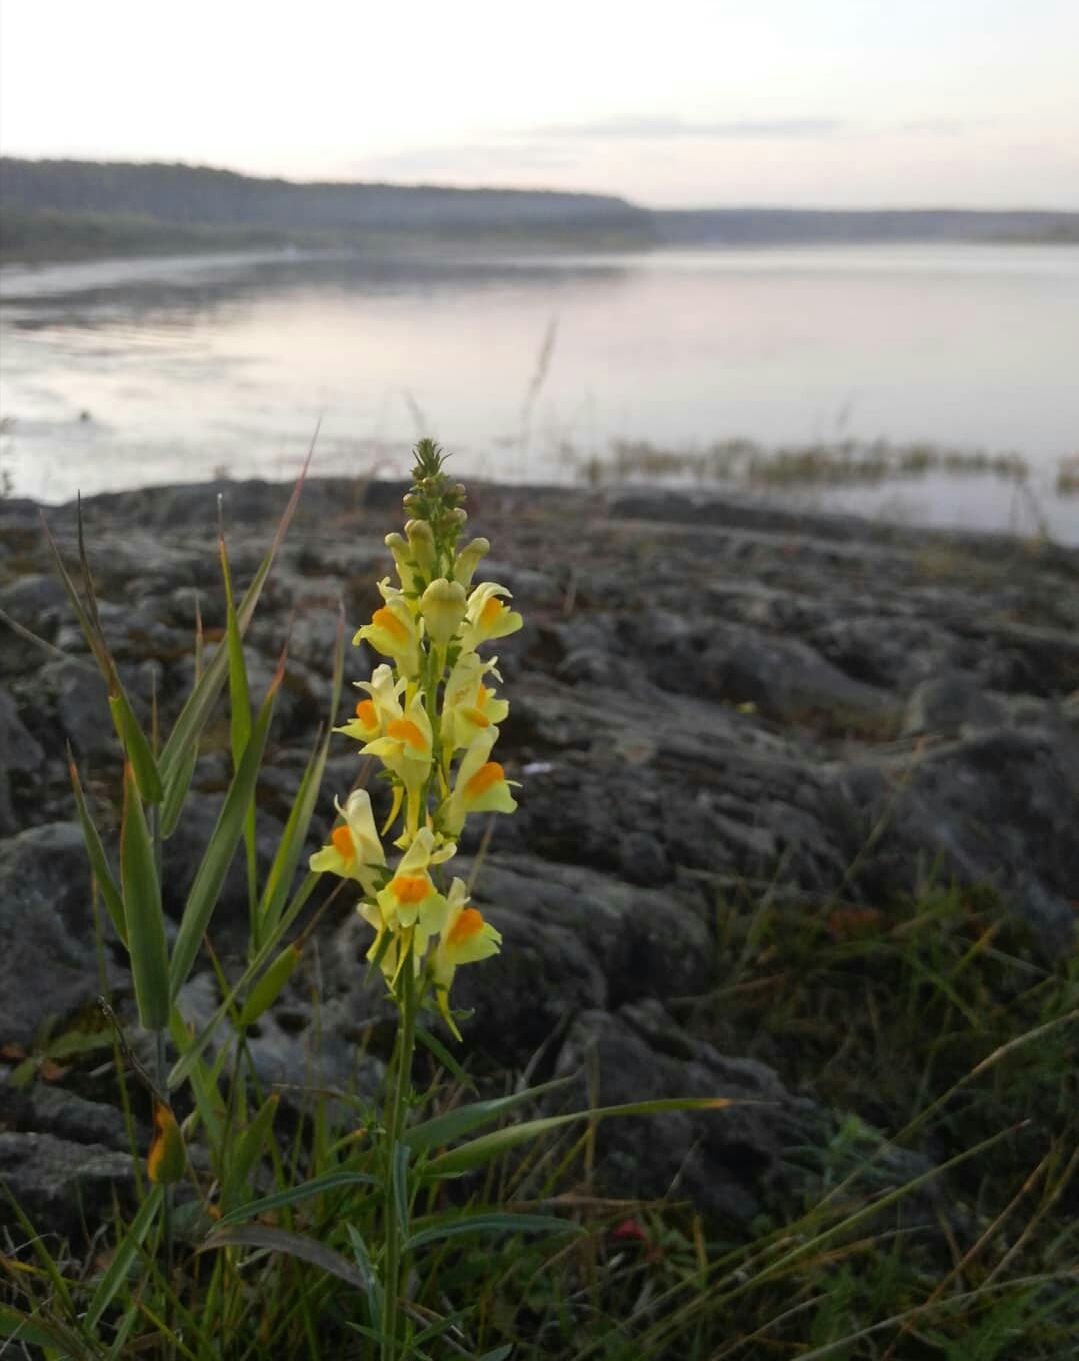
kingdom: Plantae
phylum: Tracheophyta
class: Magnoliopsida
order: Lamiales
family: Plantaginaceae
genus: Linaria
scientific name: Linaria vulgaris
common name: Butter and eggs
